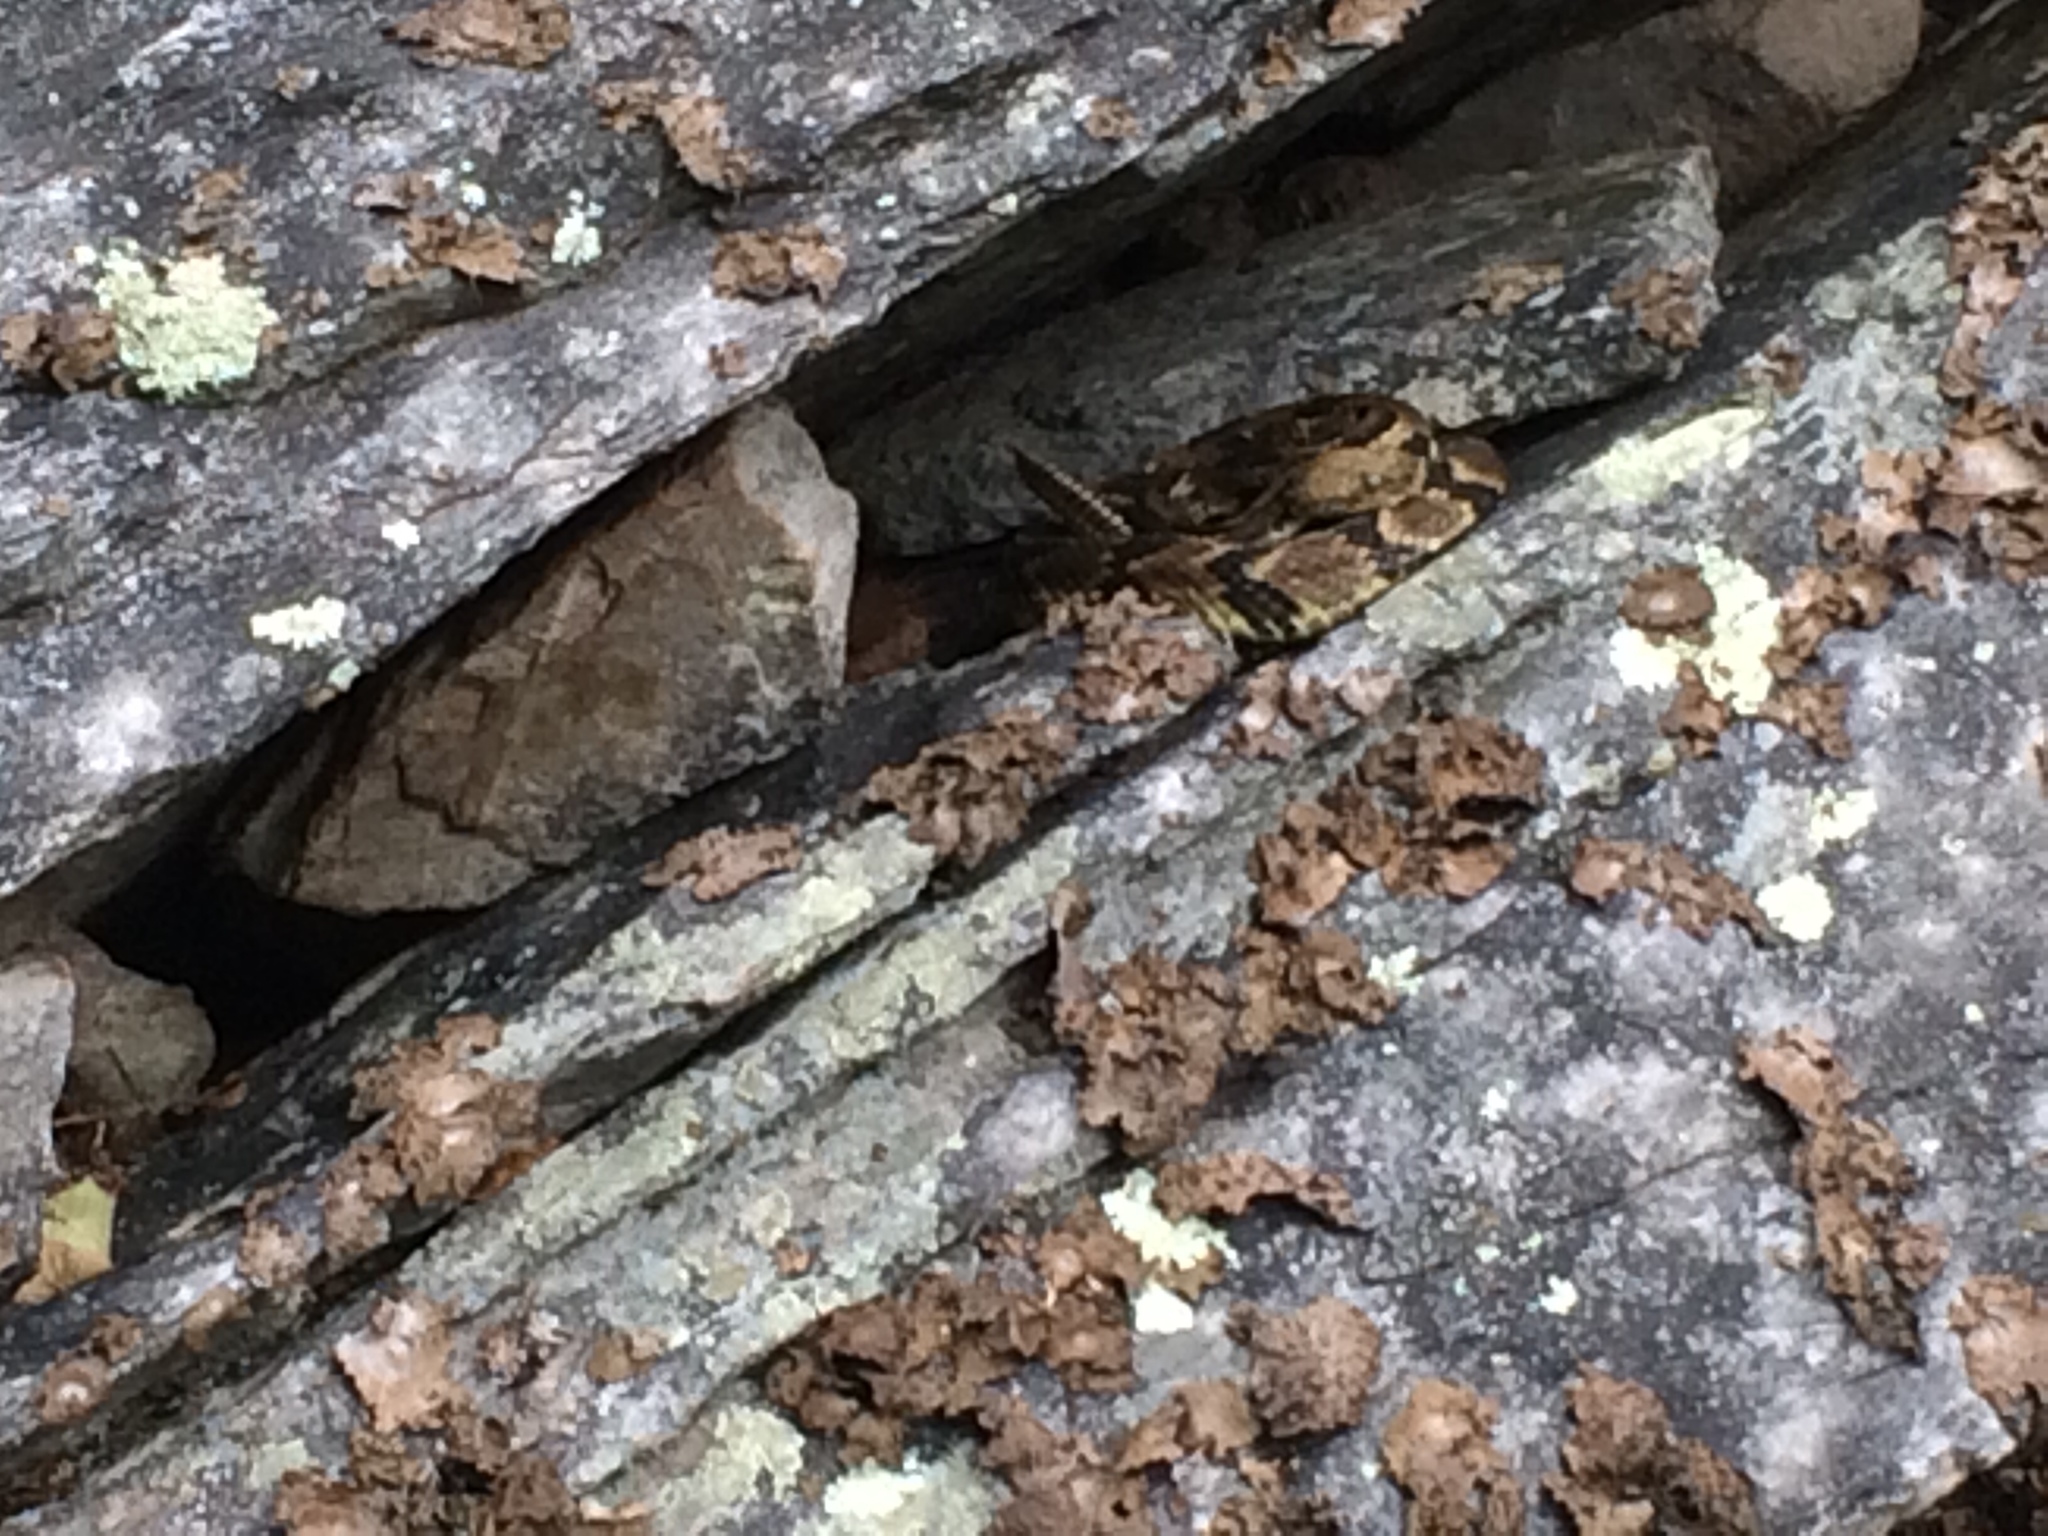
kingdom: Animalia
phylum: Chordata
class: Squamata
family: Viperidae
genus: Crotalus
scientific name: Crotalus horridus
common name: Timber rattlesnake
